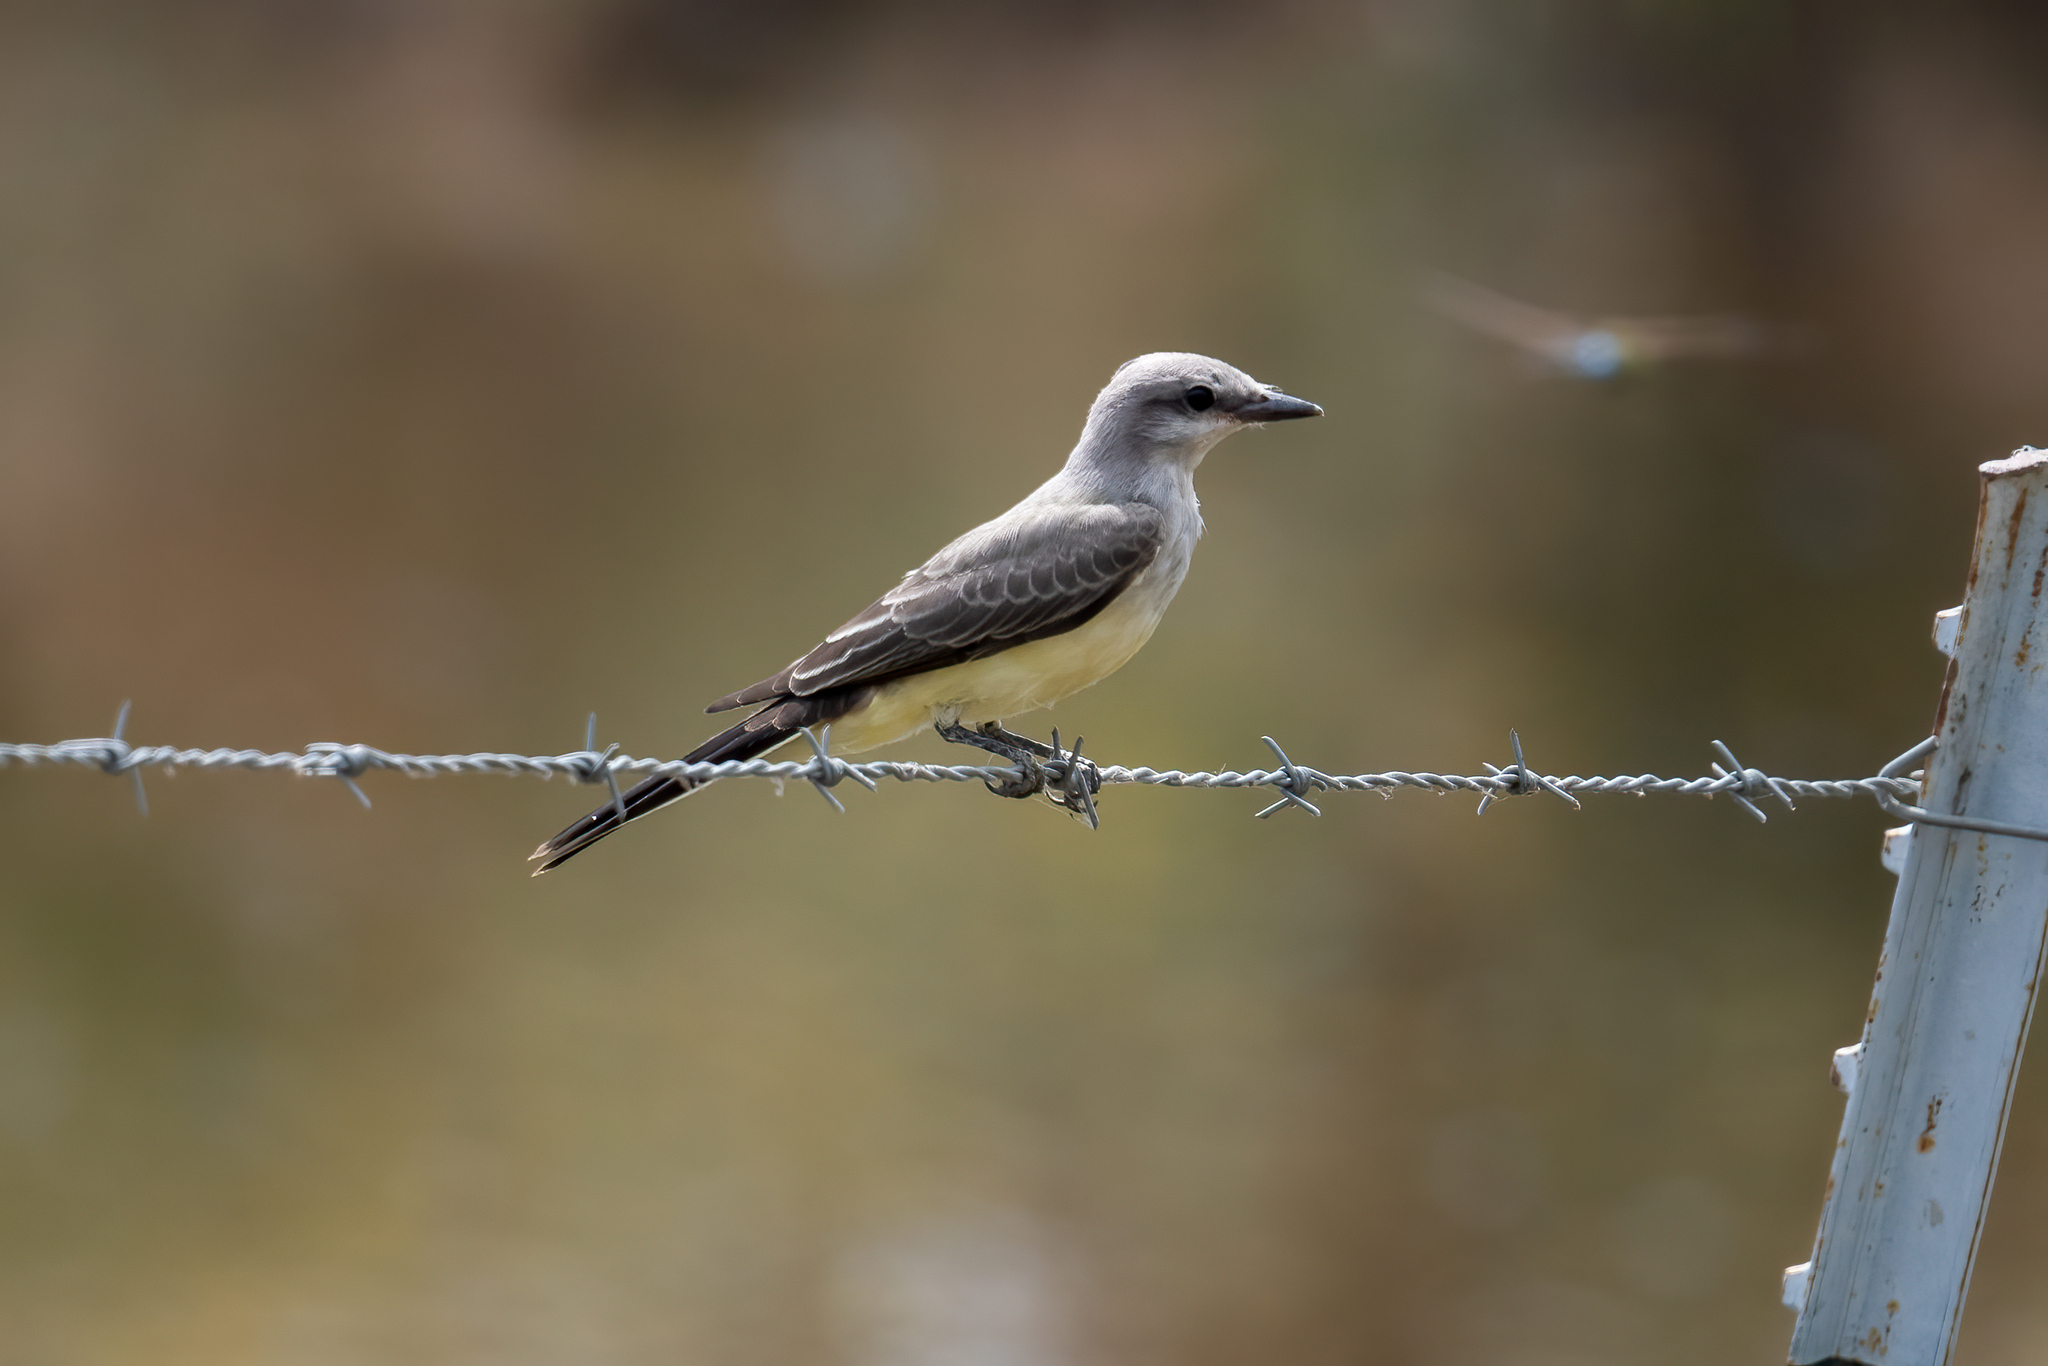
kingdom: Animalia
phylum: Chordata
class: Aves
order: Passeriformes
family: Tyrannidae
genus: Tyrannus
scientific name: Tyrannus verticalis
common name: Western kingbird
